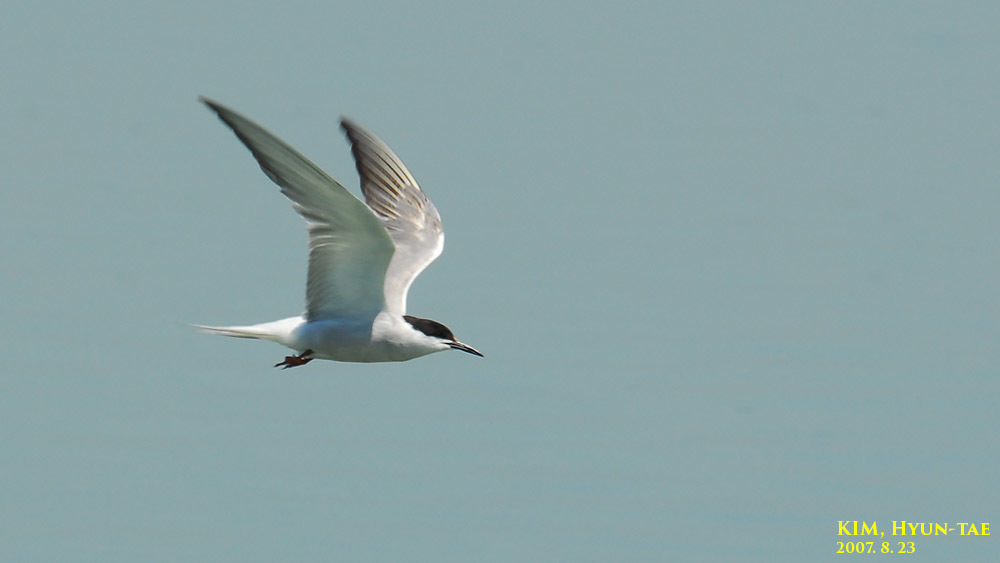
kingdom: Animalia
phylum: Chordata
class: Aves
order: Charadriiformes
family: Laridae
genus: Sterna
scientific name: Sterna hirundo
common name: Common tern
